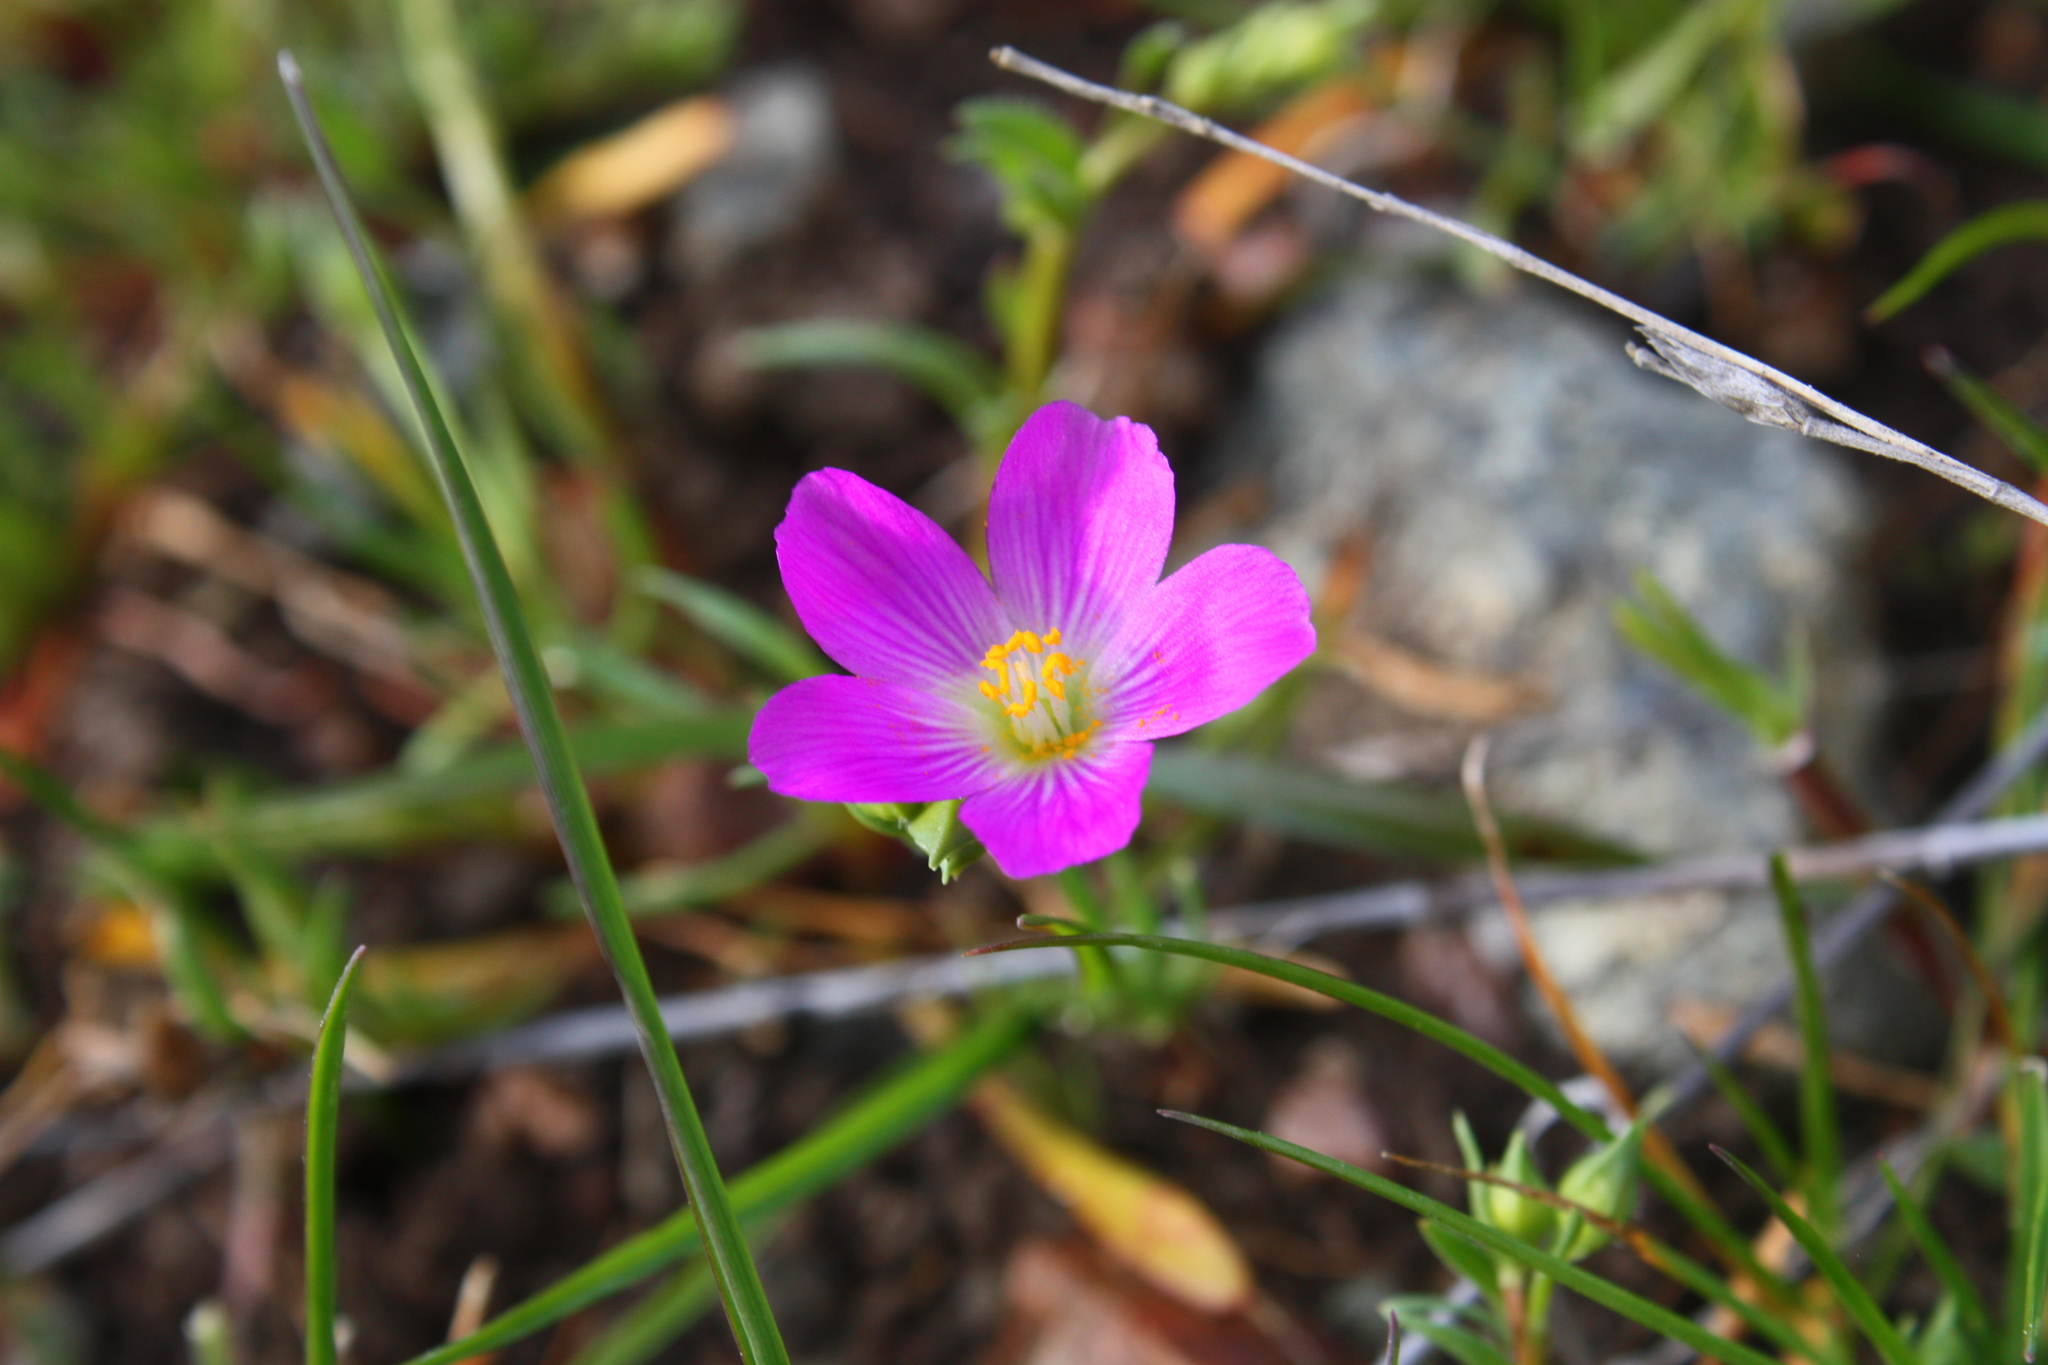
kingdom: Plantae
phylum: Tracheophyta
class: Magnoliopsida
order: Caryophyllales
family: Montiaceae
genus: Calandrinia
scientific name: Calandrinia menziesii
